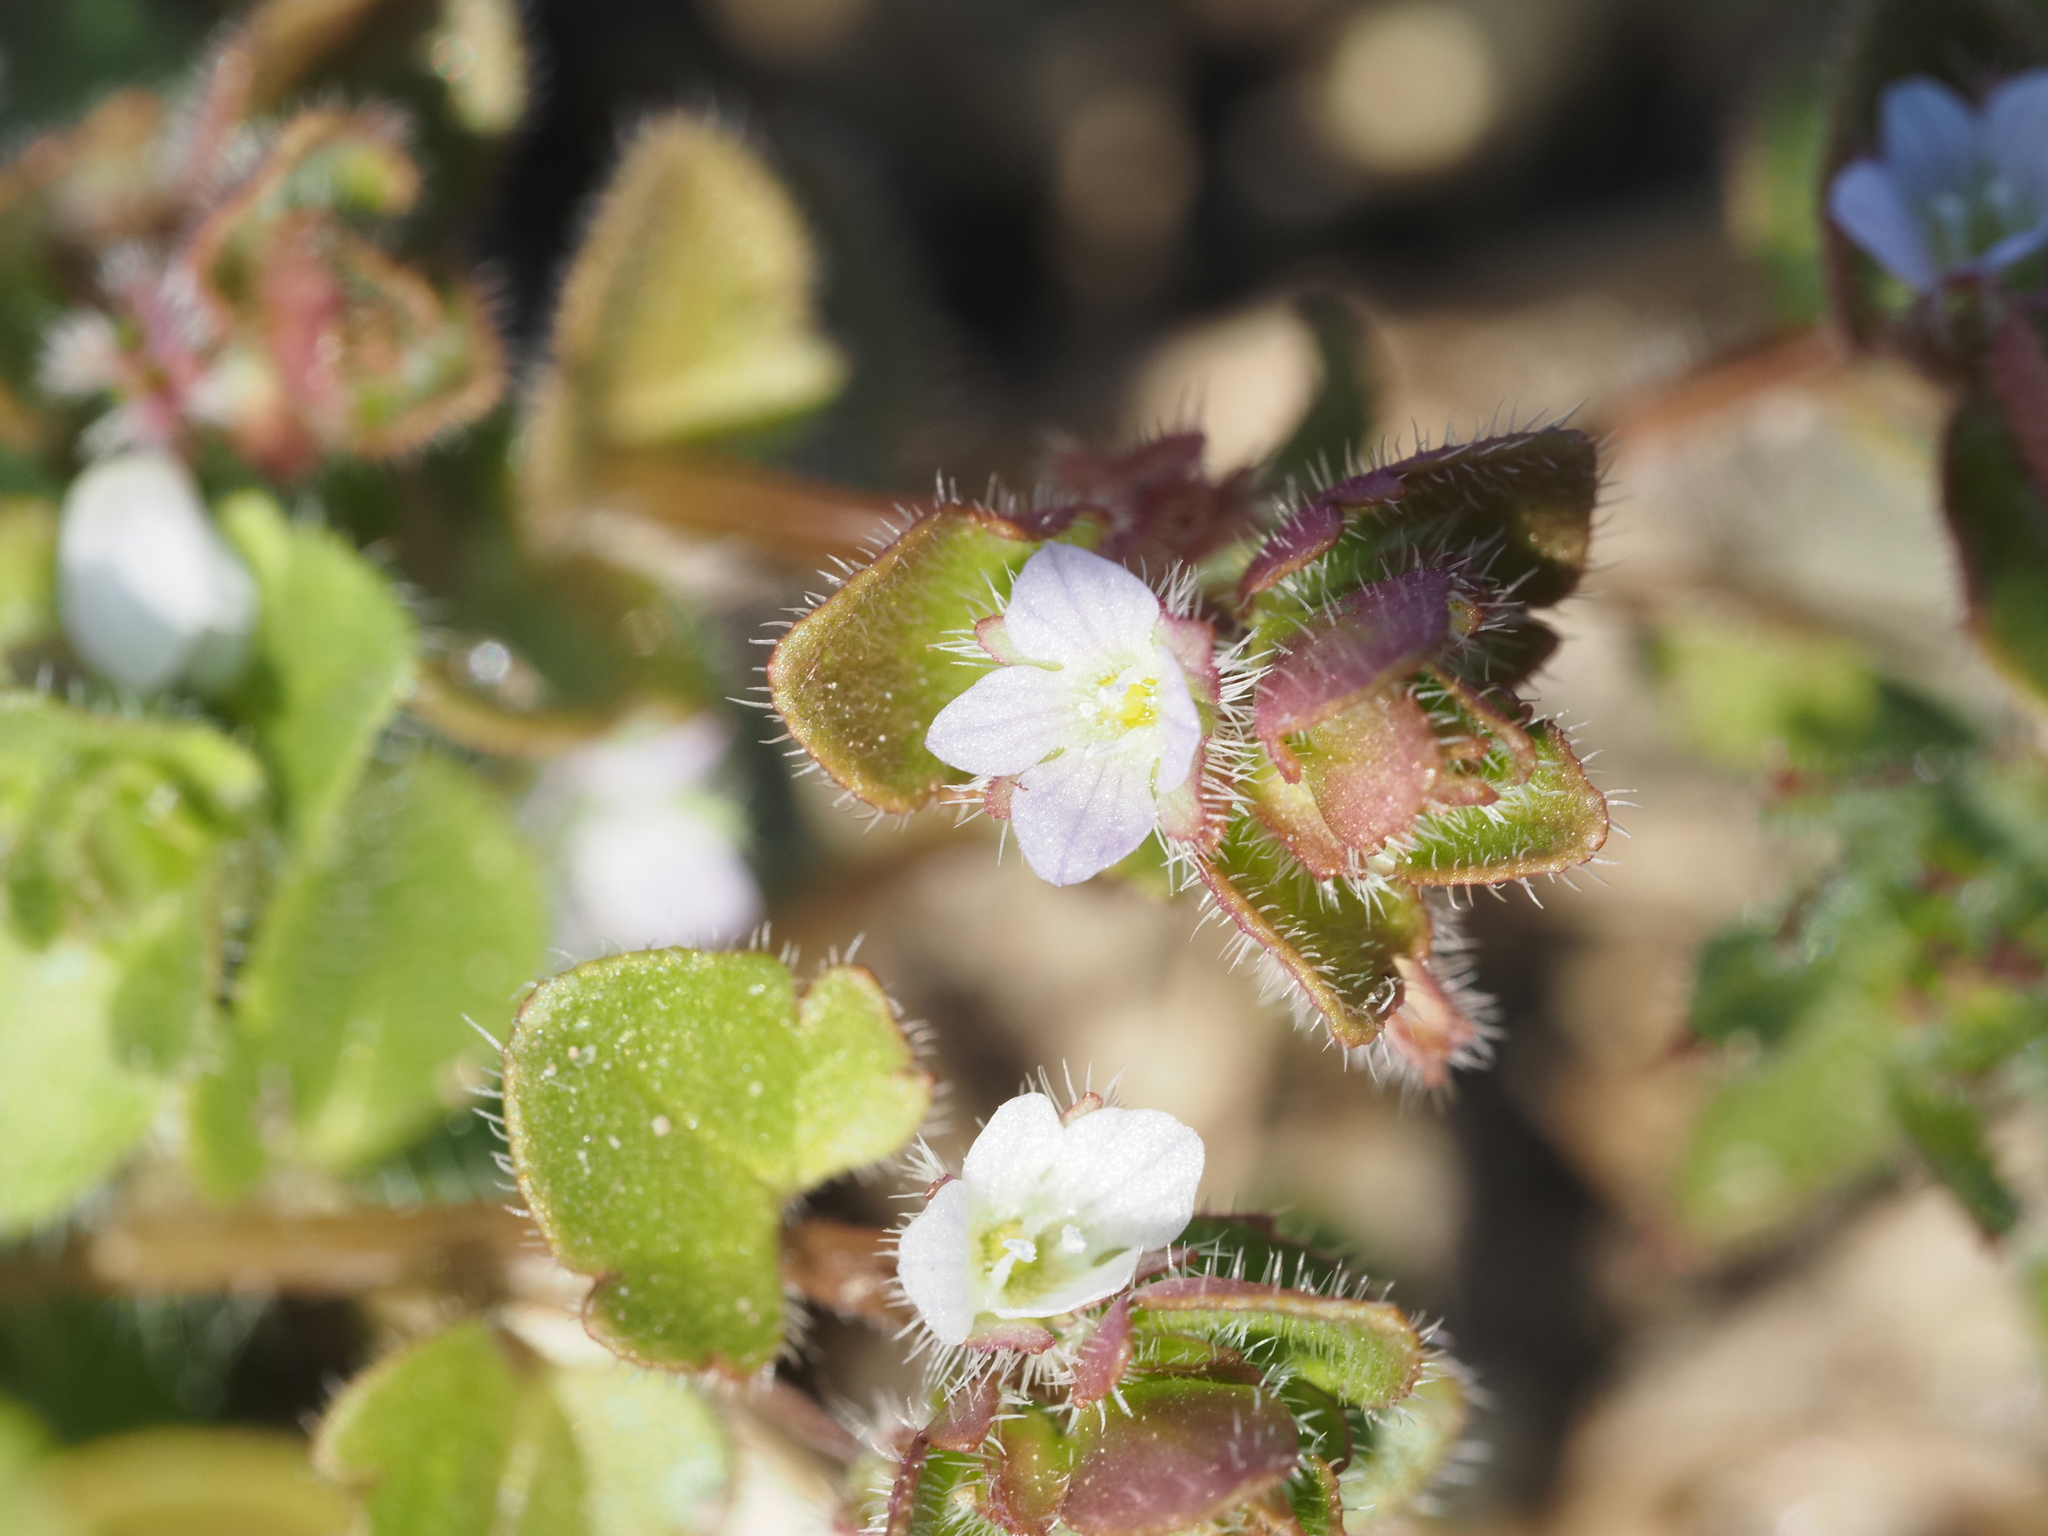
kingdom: Plantae
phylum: Tracheophyta
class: Magnoliopsida
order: Lamiales
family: Plantaginaceae
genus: Veronica
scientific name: Veronica sublobata
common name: False ivy-leaved speedwell
